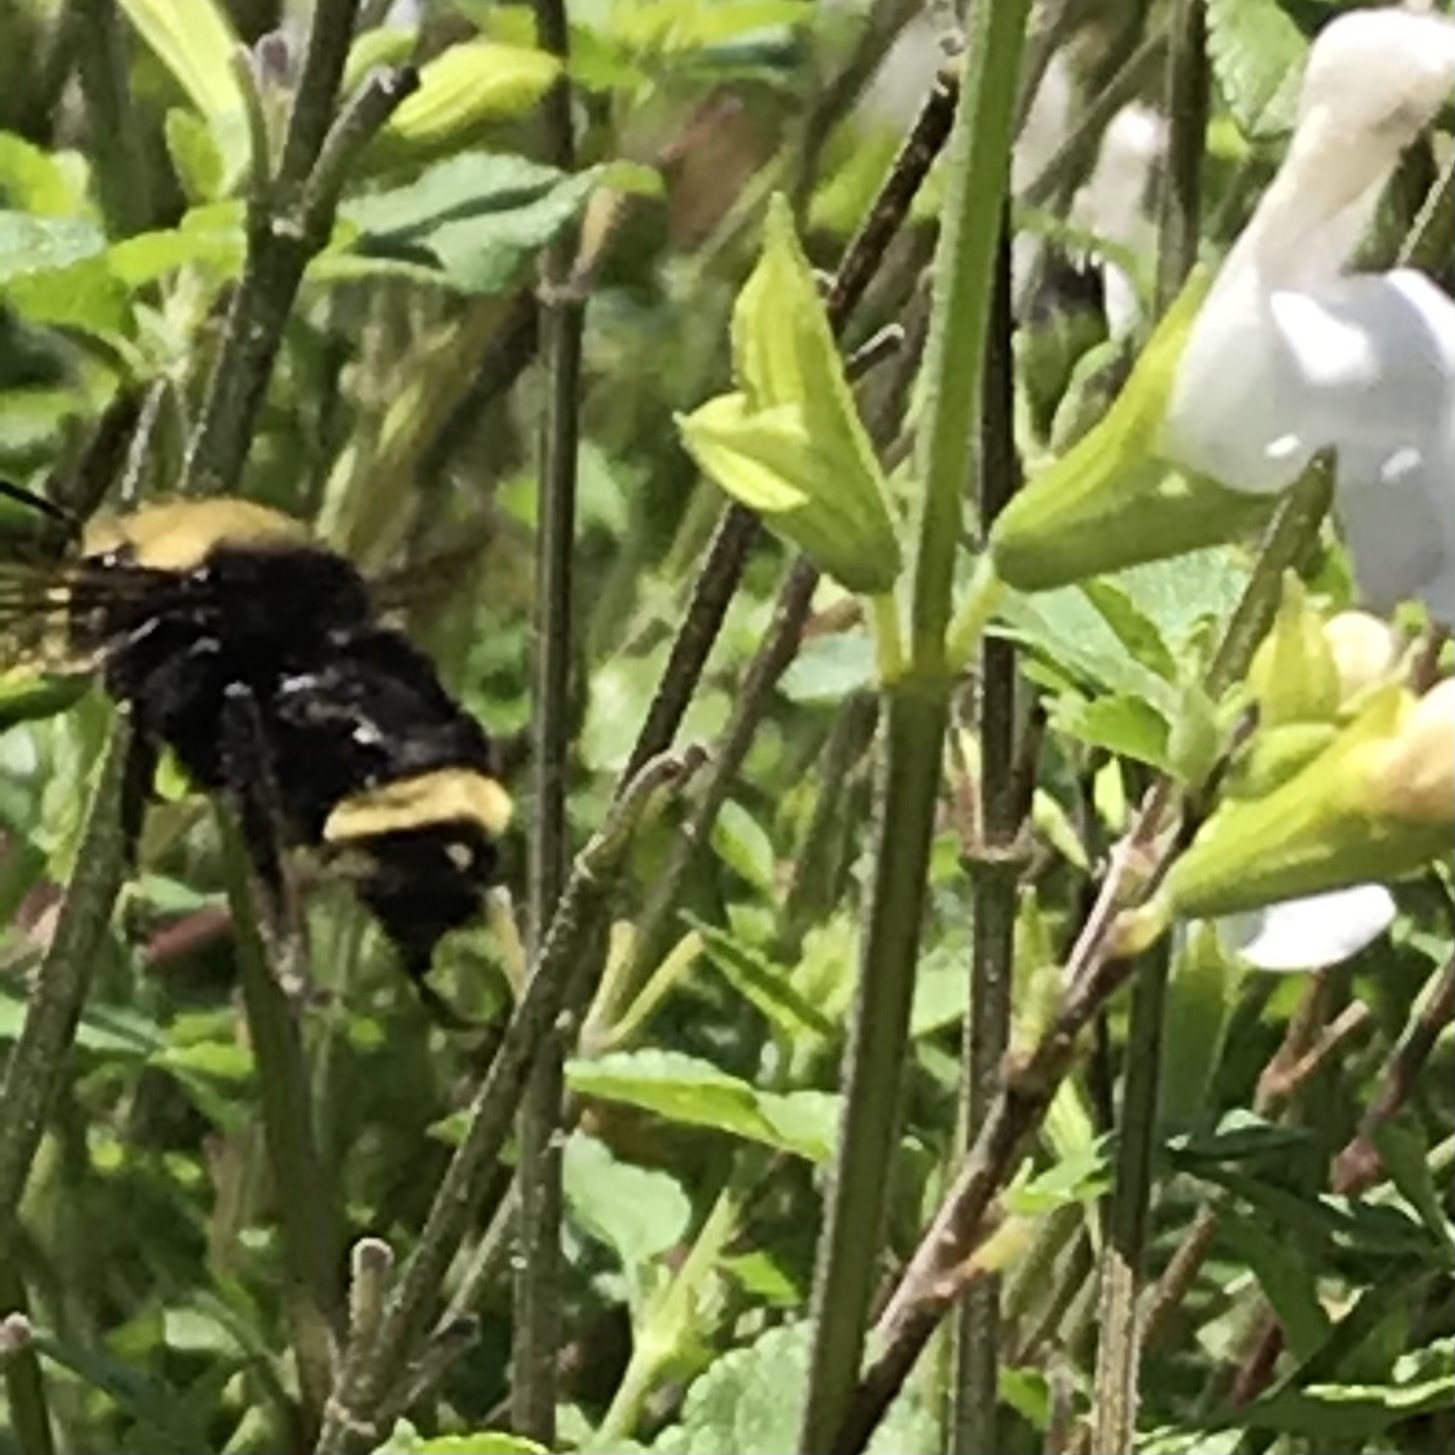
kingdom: Animalia
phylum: Arthropoda
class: Insecta
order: Hymenoptera
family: Apidae
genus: Bombus
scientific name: Bombus vosnesenskii
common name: Vosnesensky bumble bee
